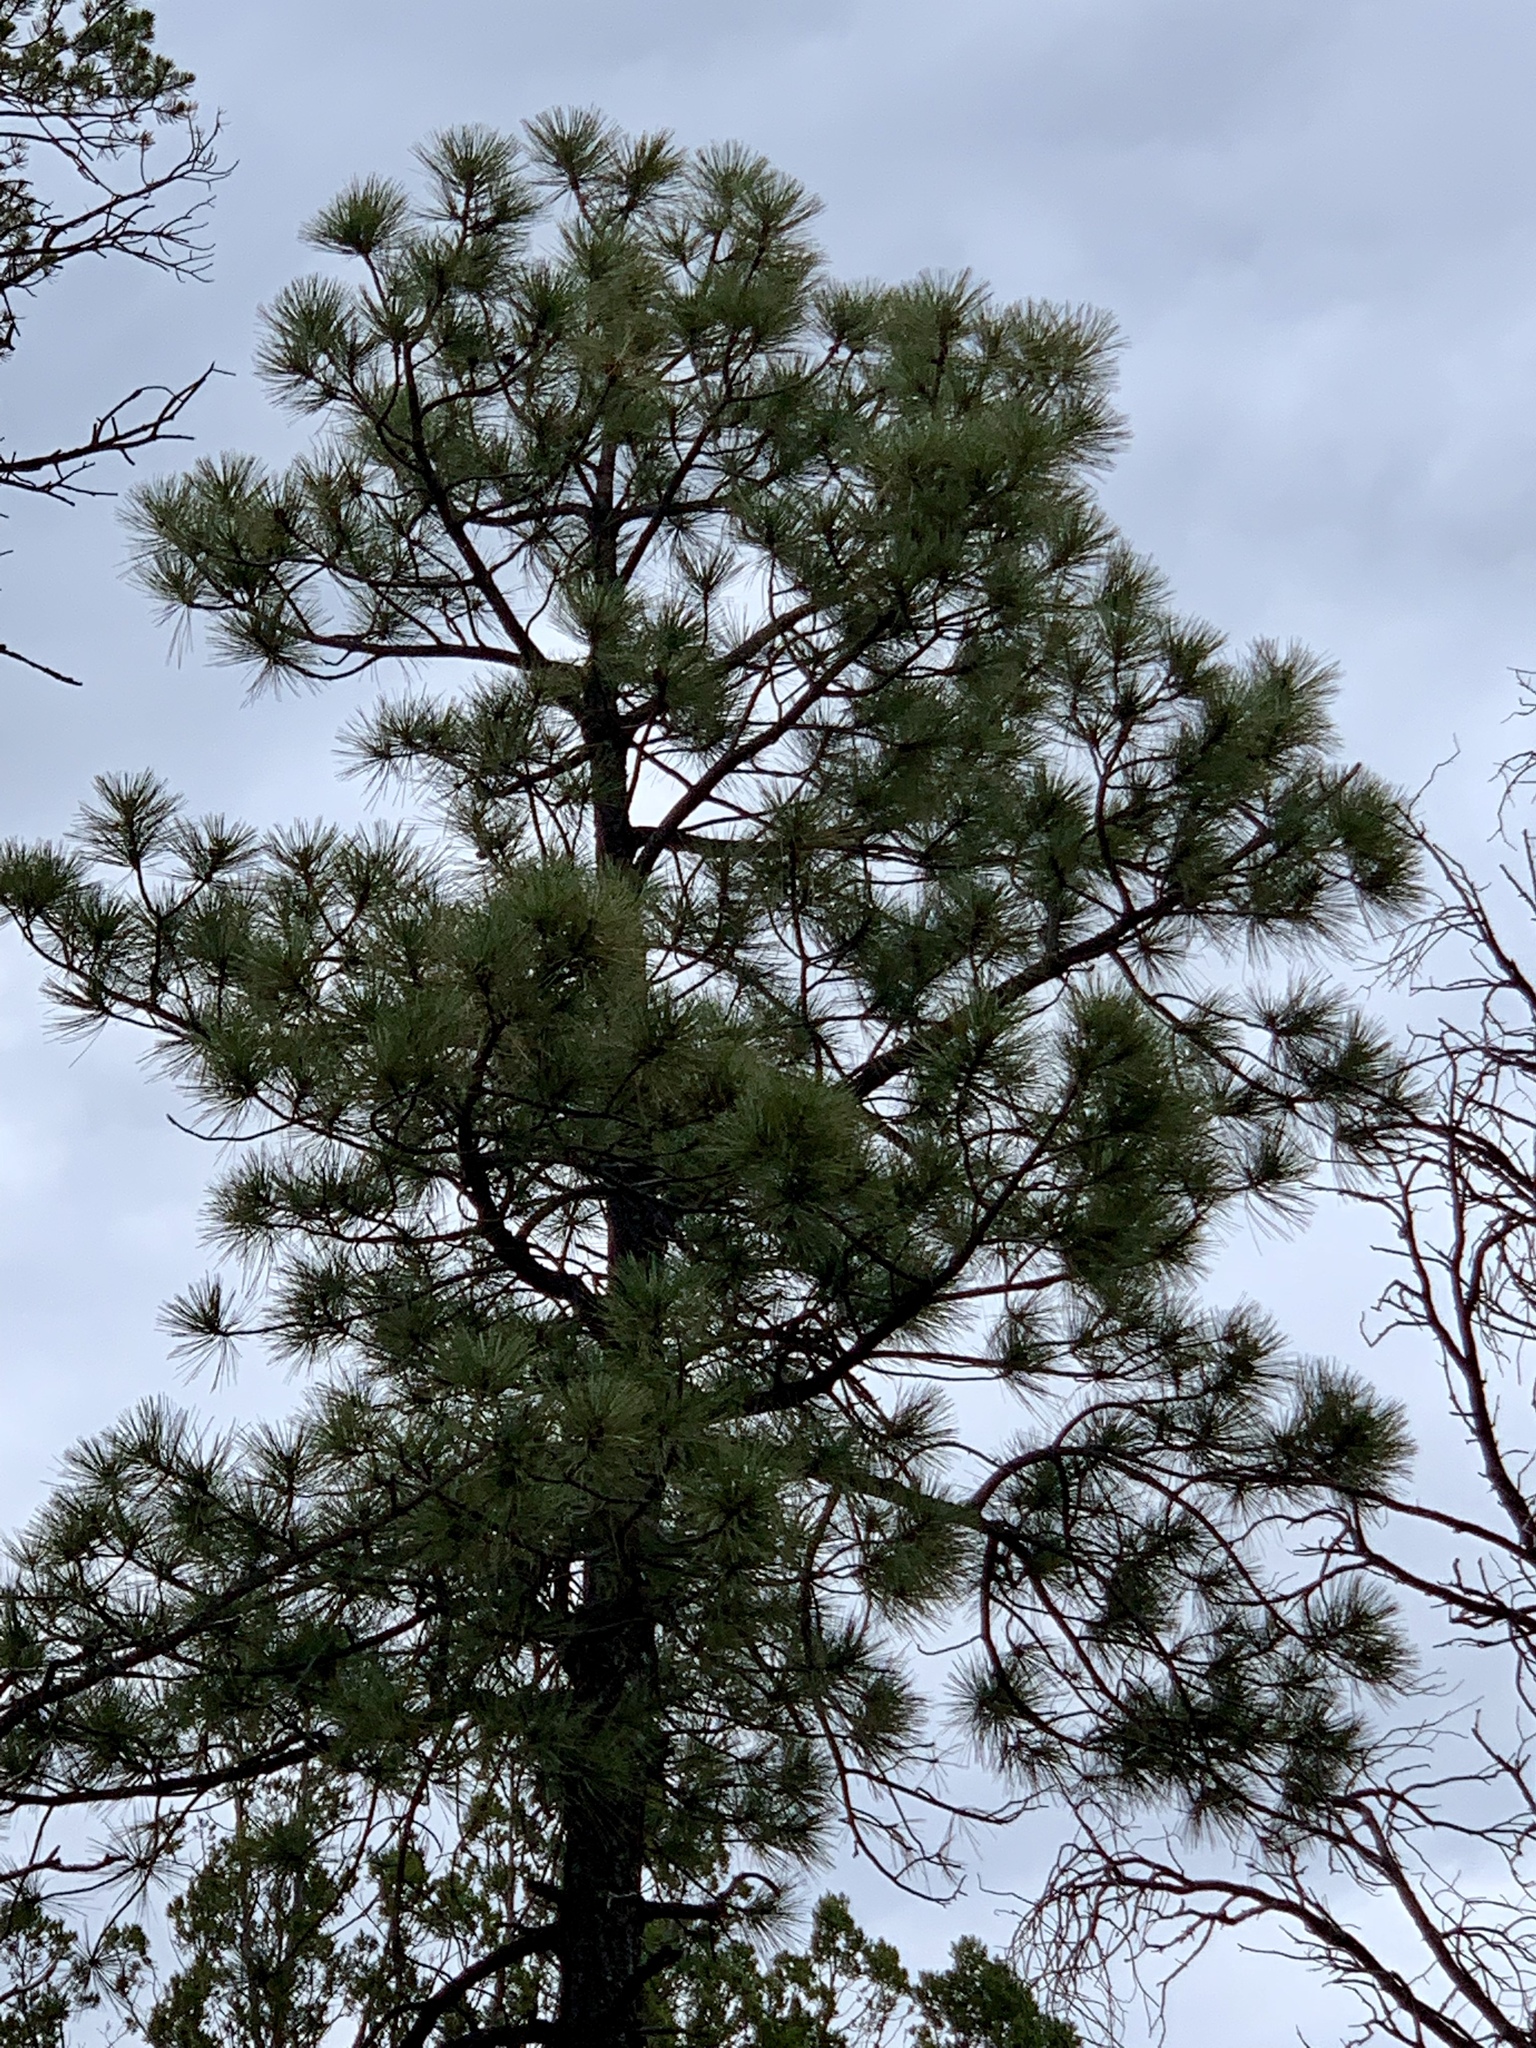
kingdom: Plantae
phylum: Tracheophyta
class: Pinopsida
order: Pinales
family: Pinaceae
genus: Pinus
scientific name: Pinus ponderosa
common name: Western yellow-pine
